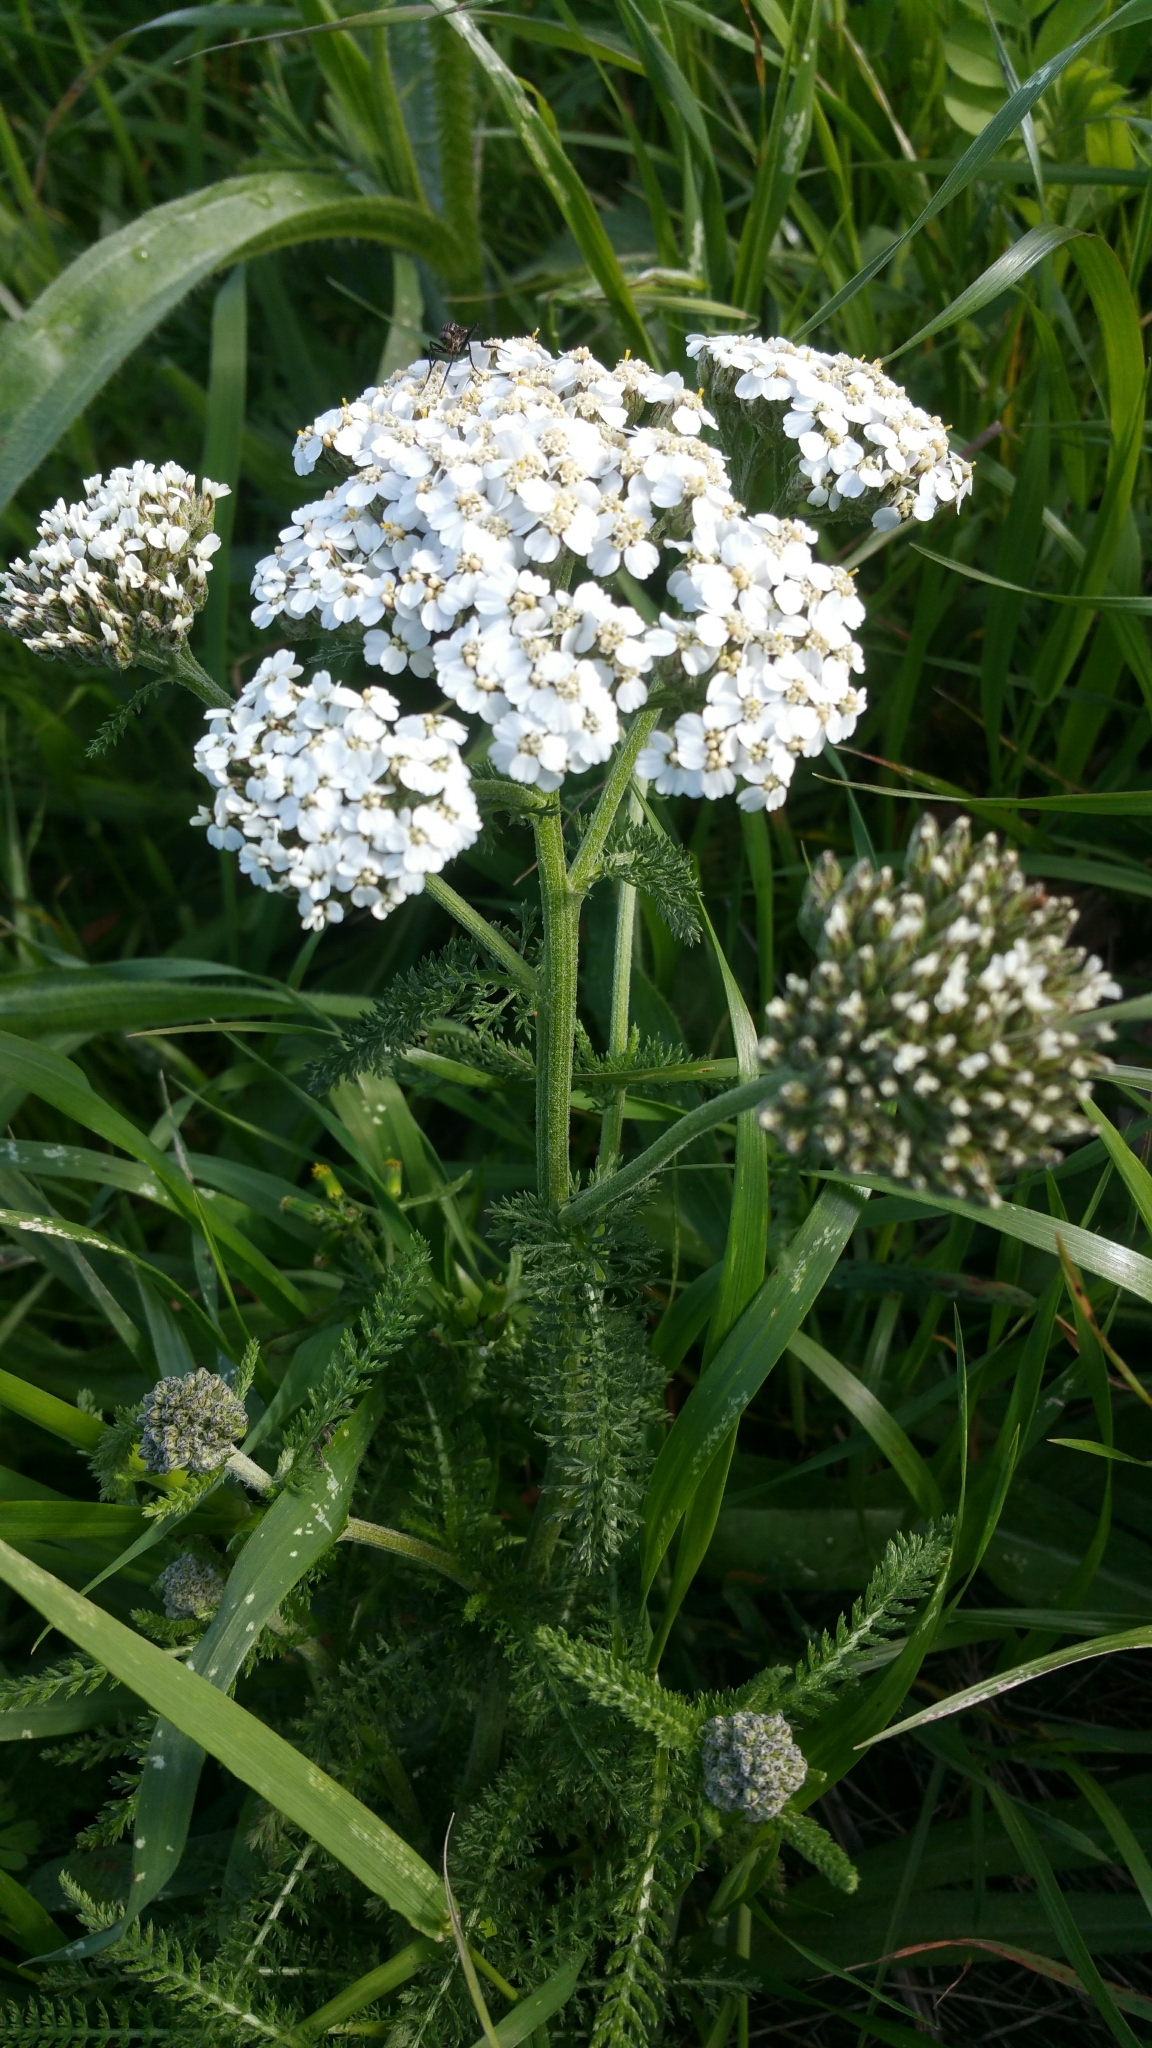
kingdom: Plantae
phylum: Tracheophyta
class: Magnoliopsida
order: Asterales
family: Asteraceae
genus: Achillea
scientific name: Achillea millefolium
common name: Yarrow
